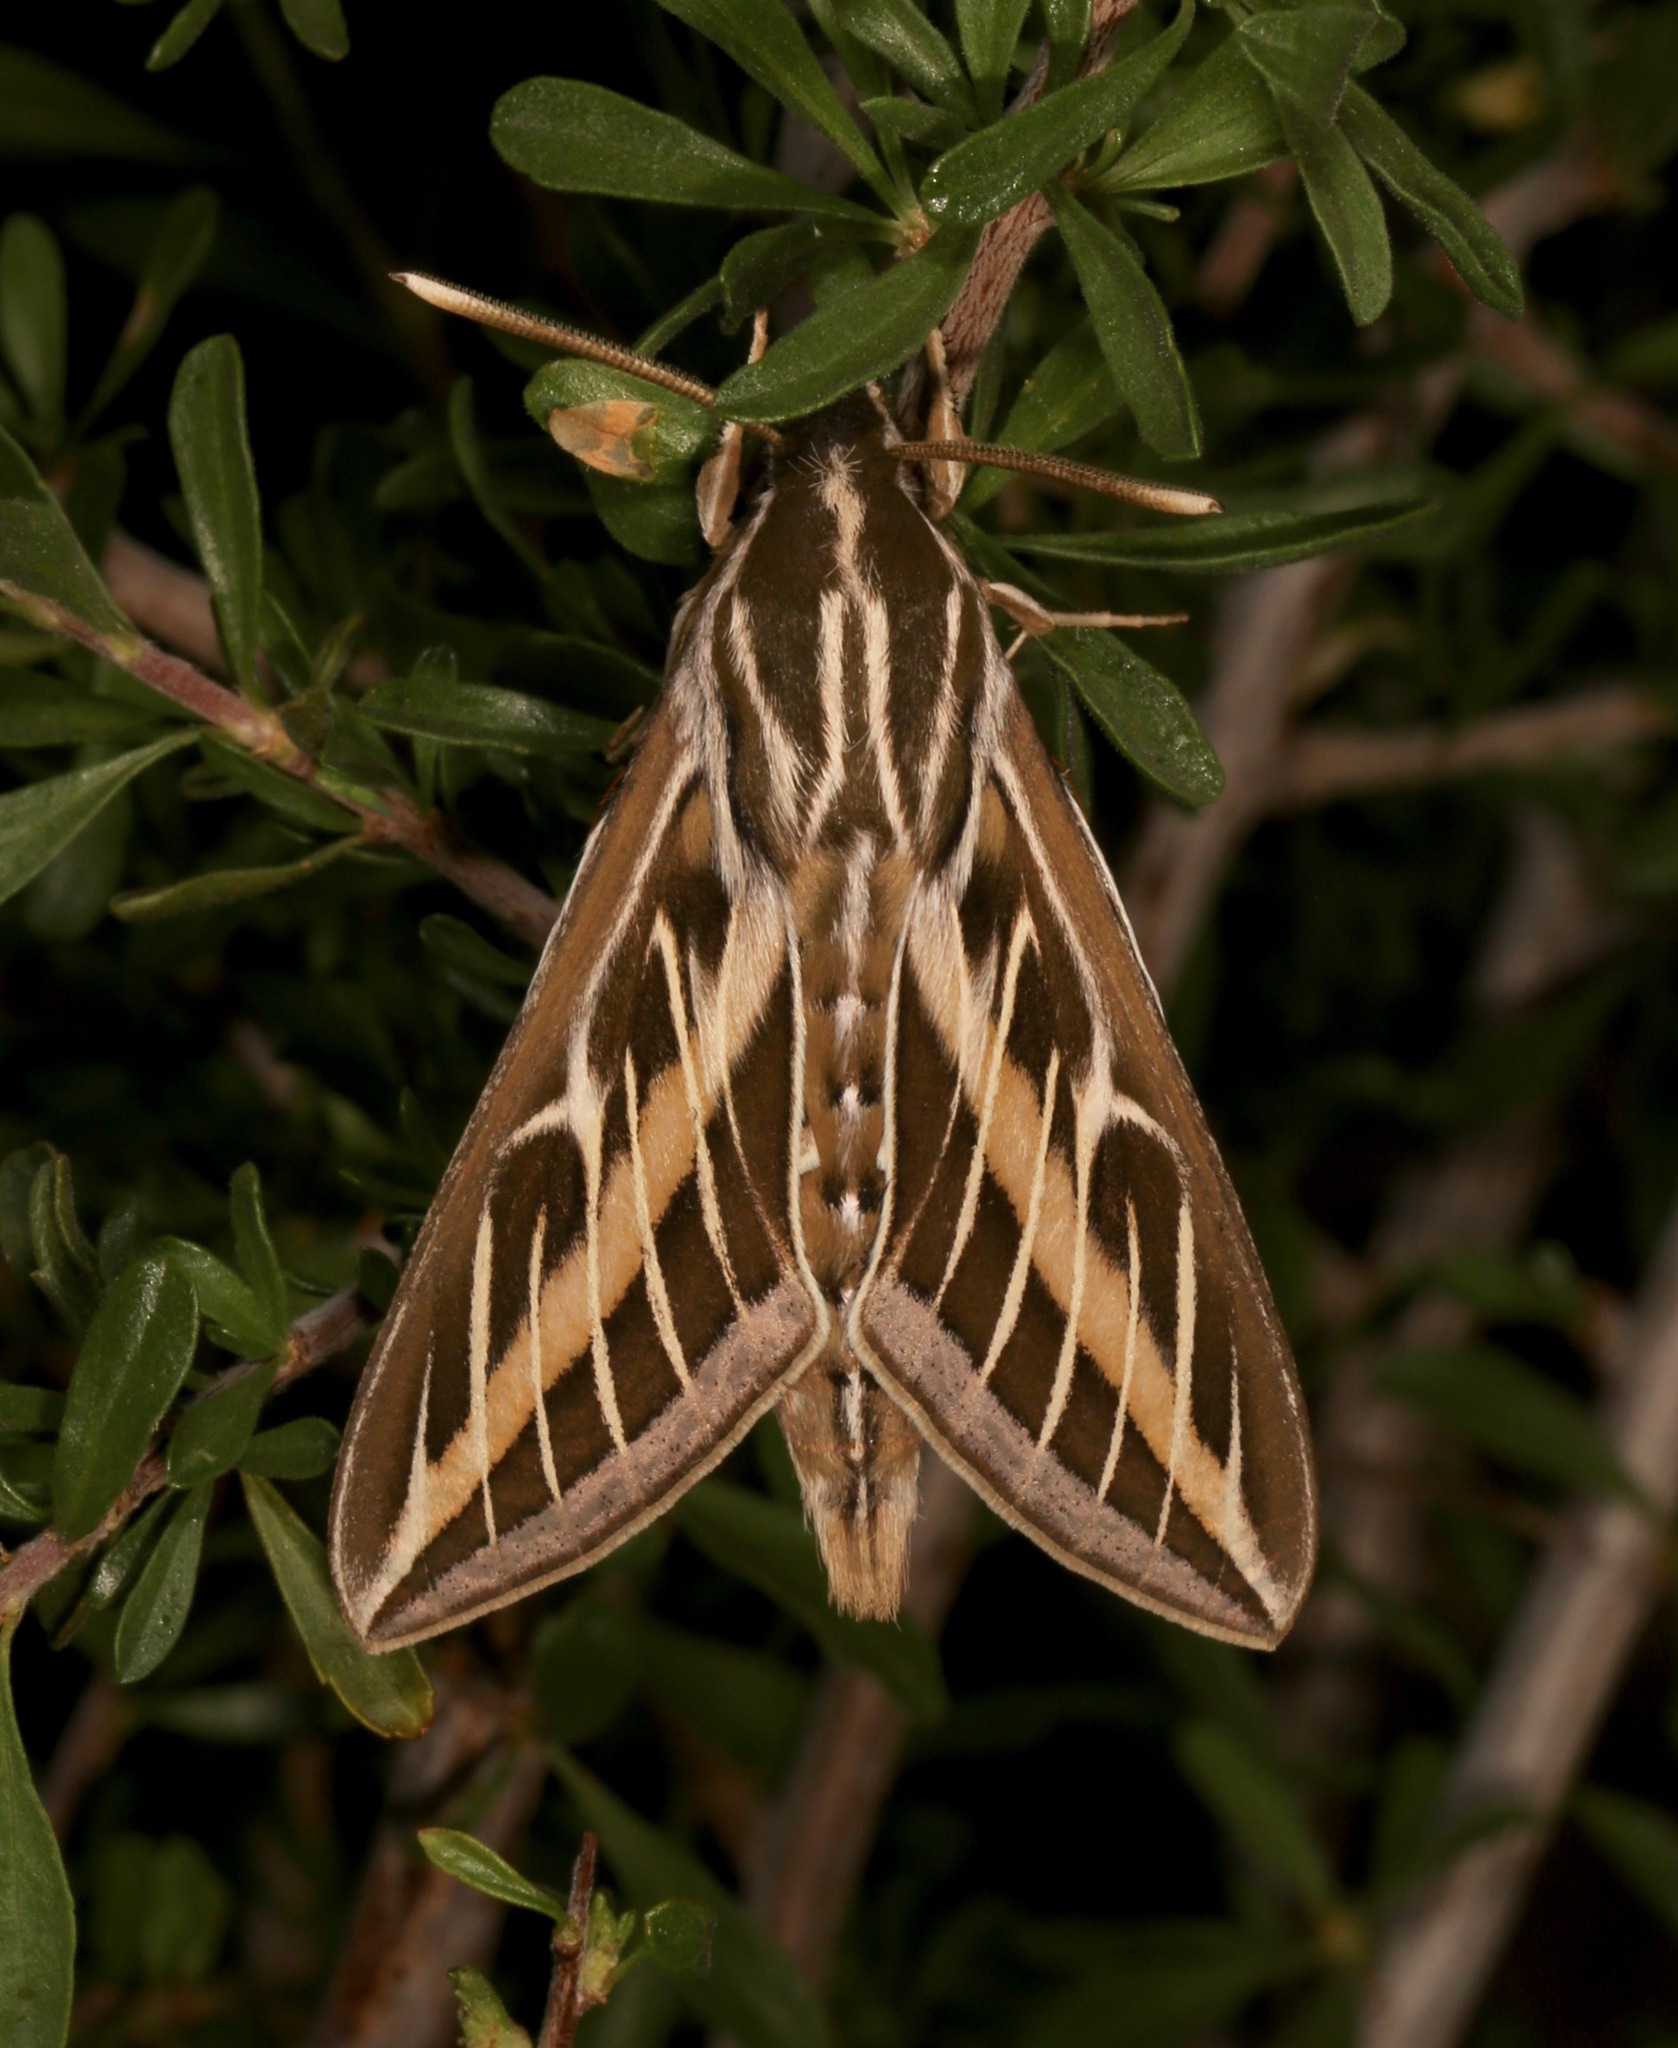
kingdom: Animalia
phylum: Arthropoda
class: Insecta
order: Lepidoptera
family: Sphingidae
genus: Hyles
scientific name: Hyles lineata
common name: White-lined sphinx
